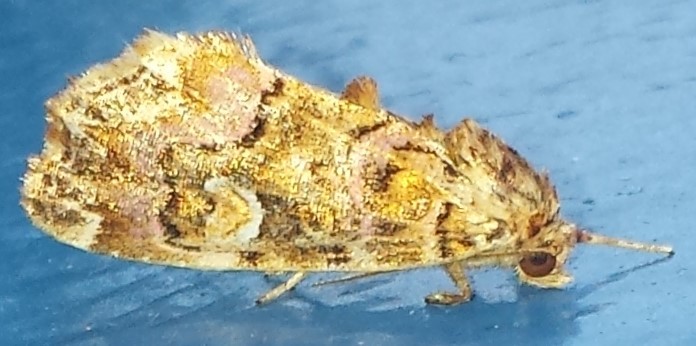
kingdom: Animalia
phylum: Arthropoda
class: Insecta
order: Lepidoptera
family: Noctuidae
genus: Callopistria
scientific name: Callopistria mollissima
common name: Pink-shaded fern moth
